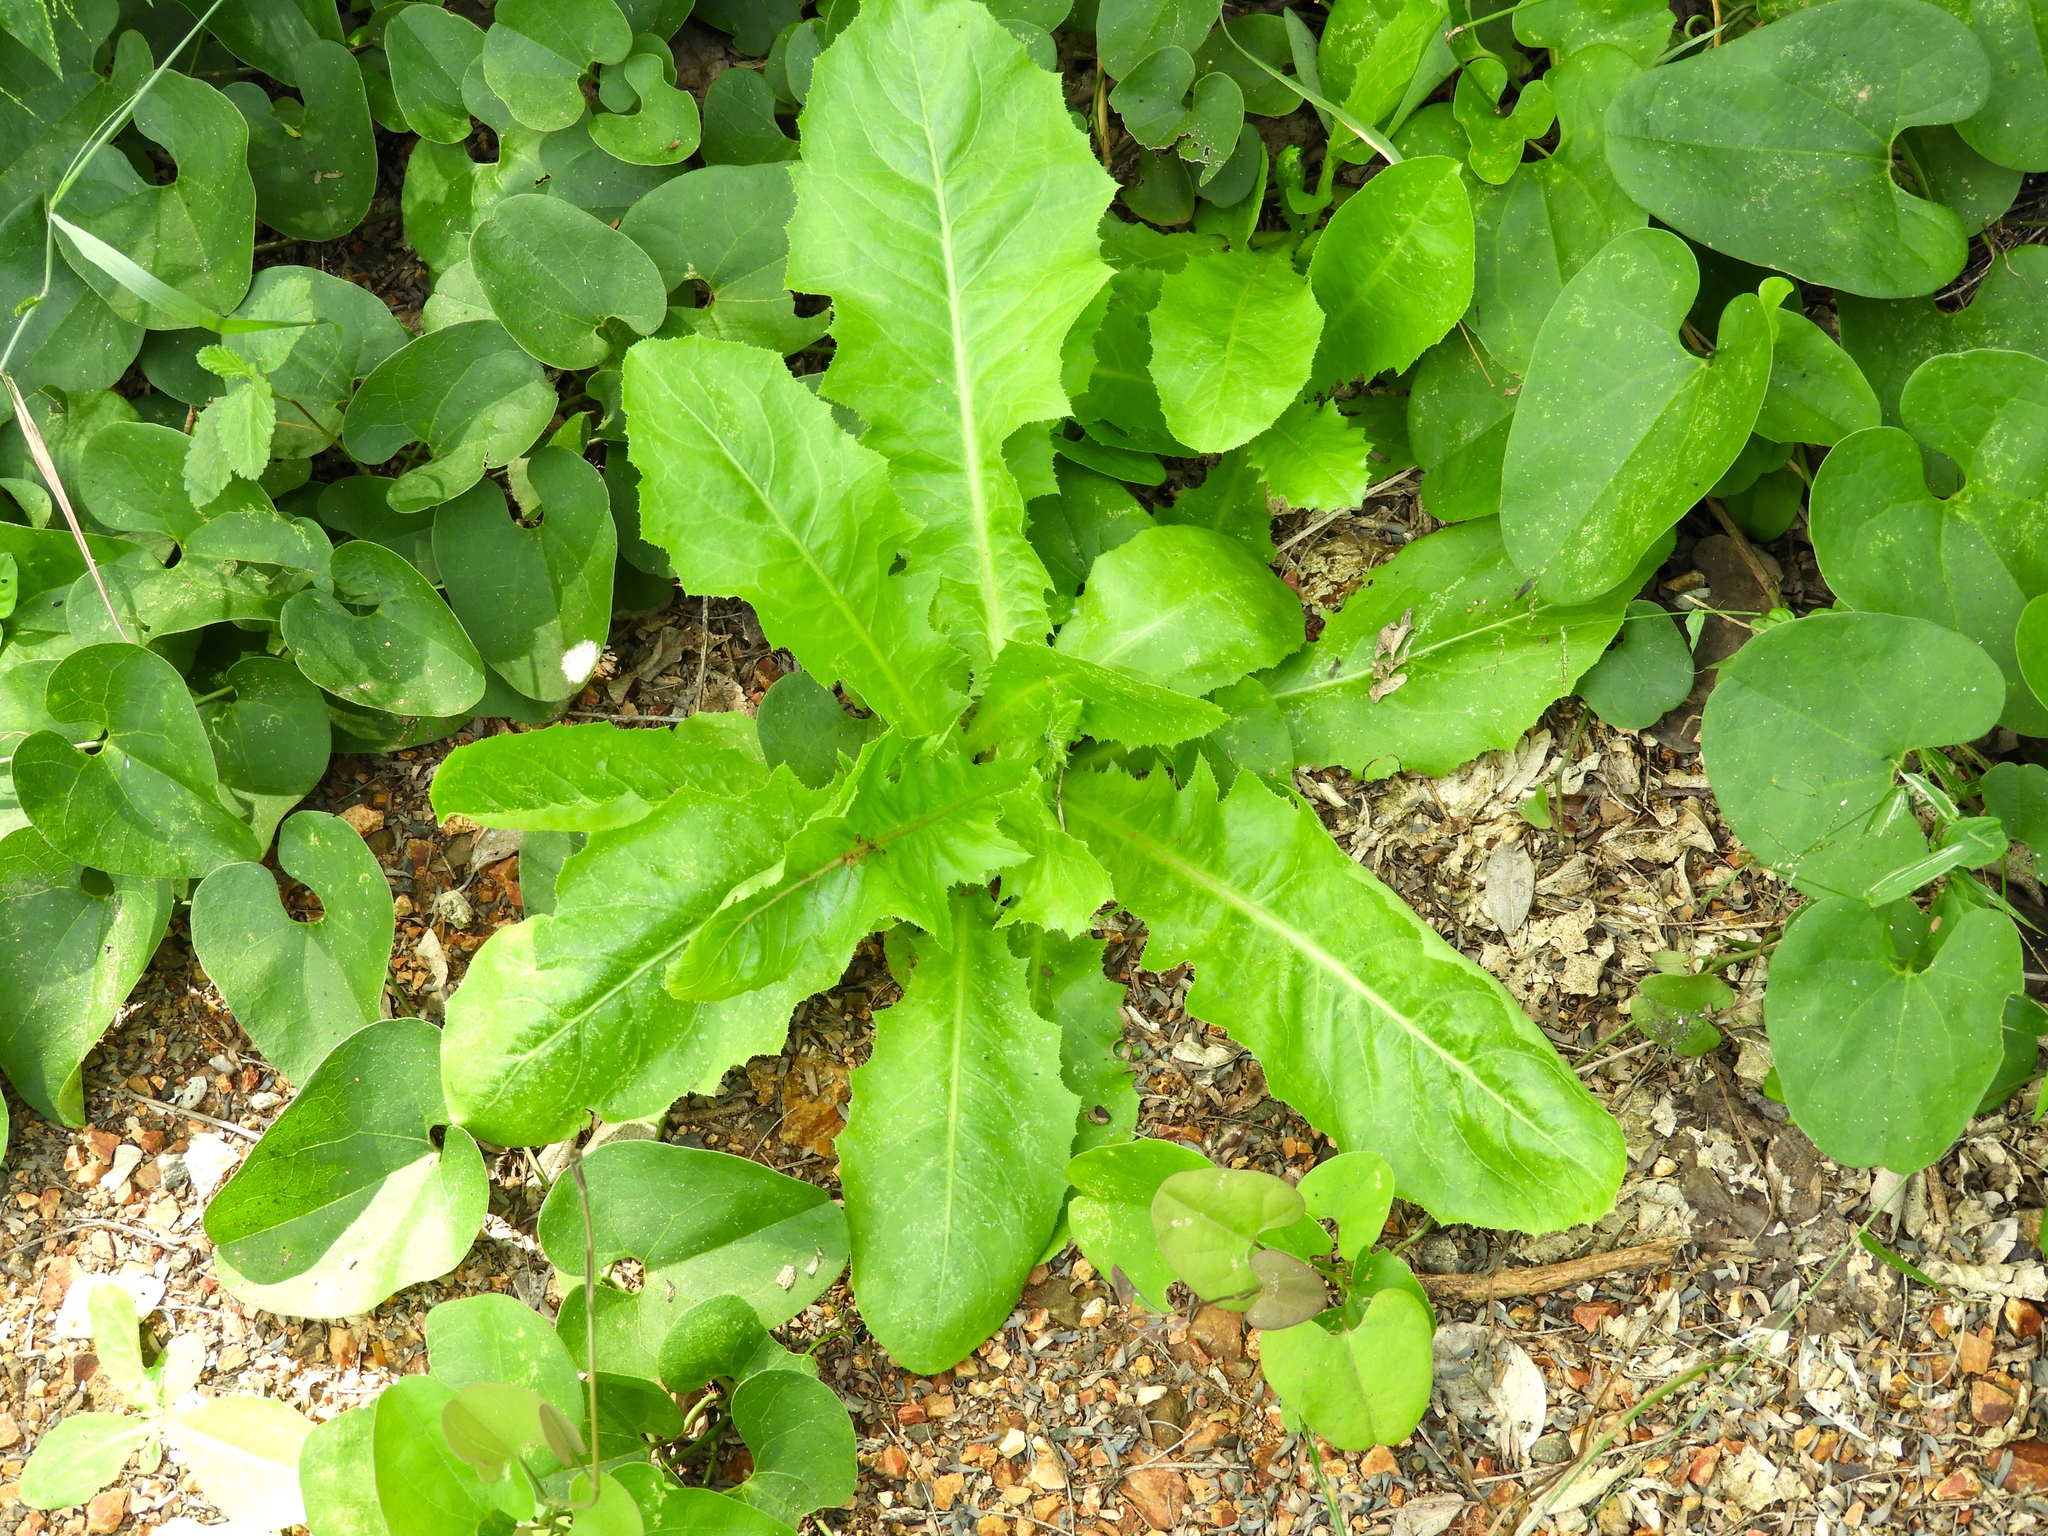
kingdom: Plantae
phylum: Tracheophyta
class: Magnoliopsida
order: Asterales
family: Asteraceae
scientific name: Asteraceae
